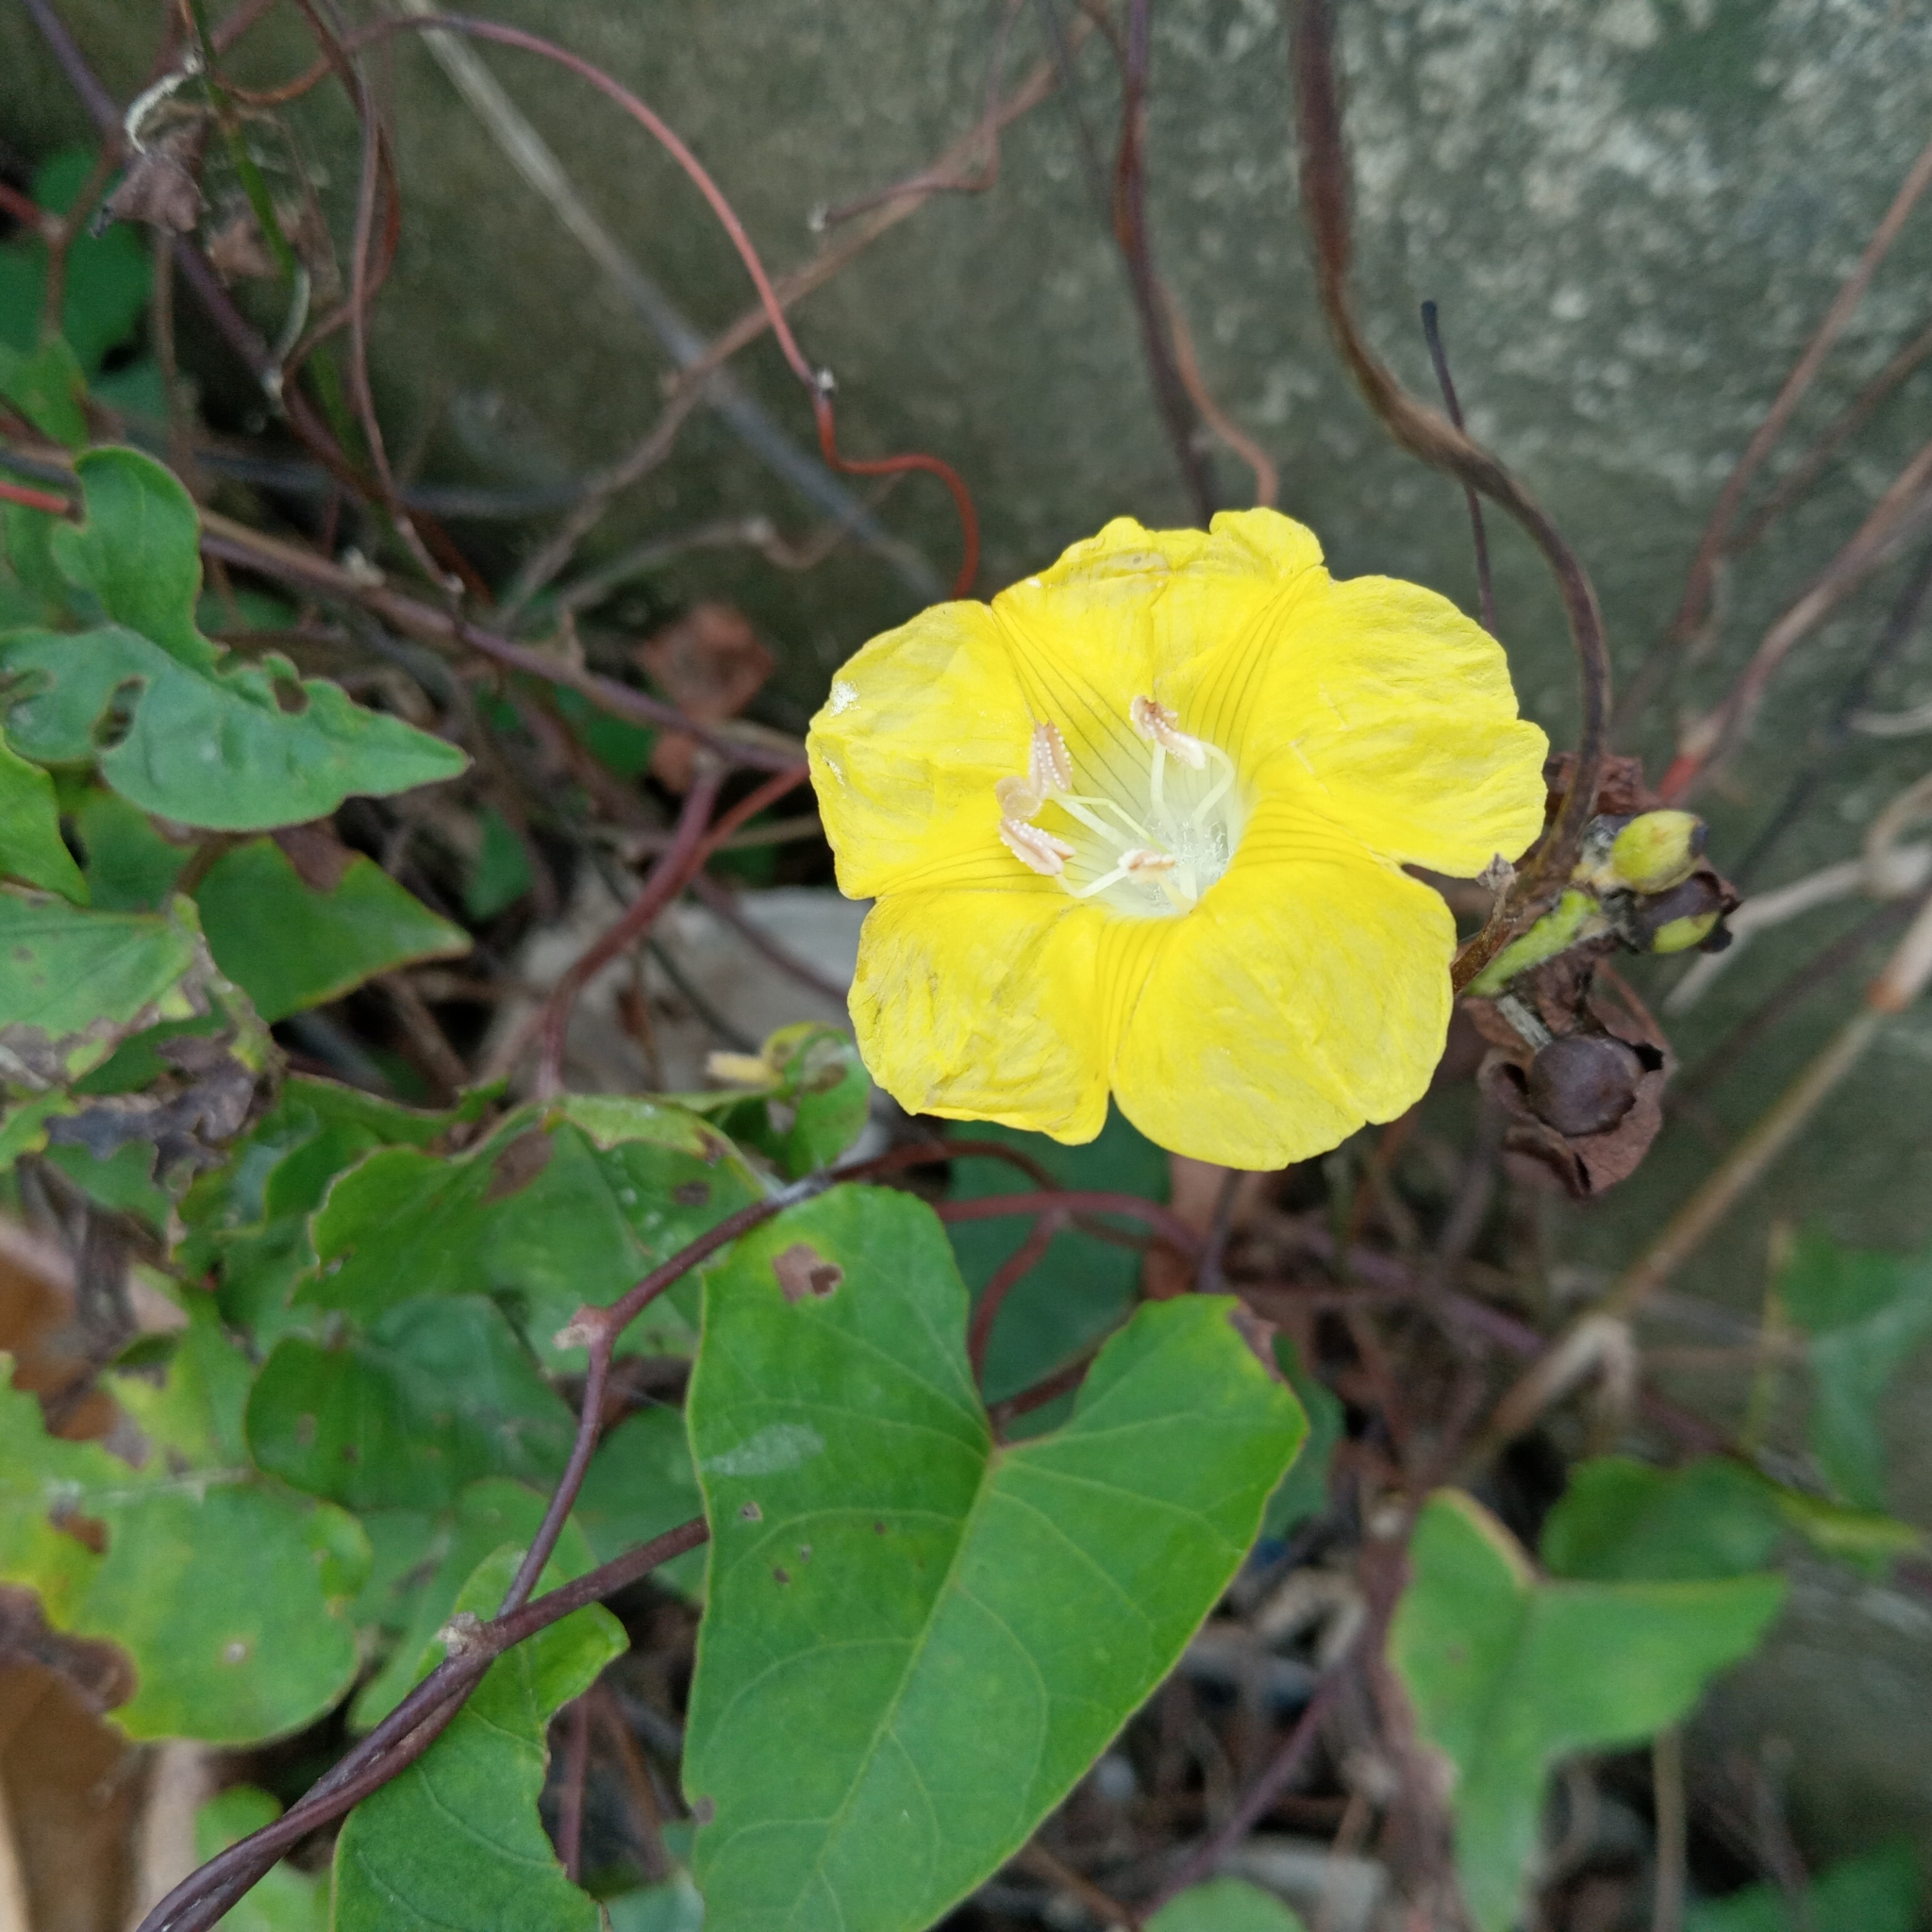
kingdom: Plantae
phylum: Tracheophyta
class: Magnoliopsida
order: Solanales
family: Convolvulaceae
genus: Merremia
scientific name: Merremia hederacea
